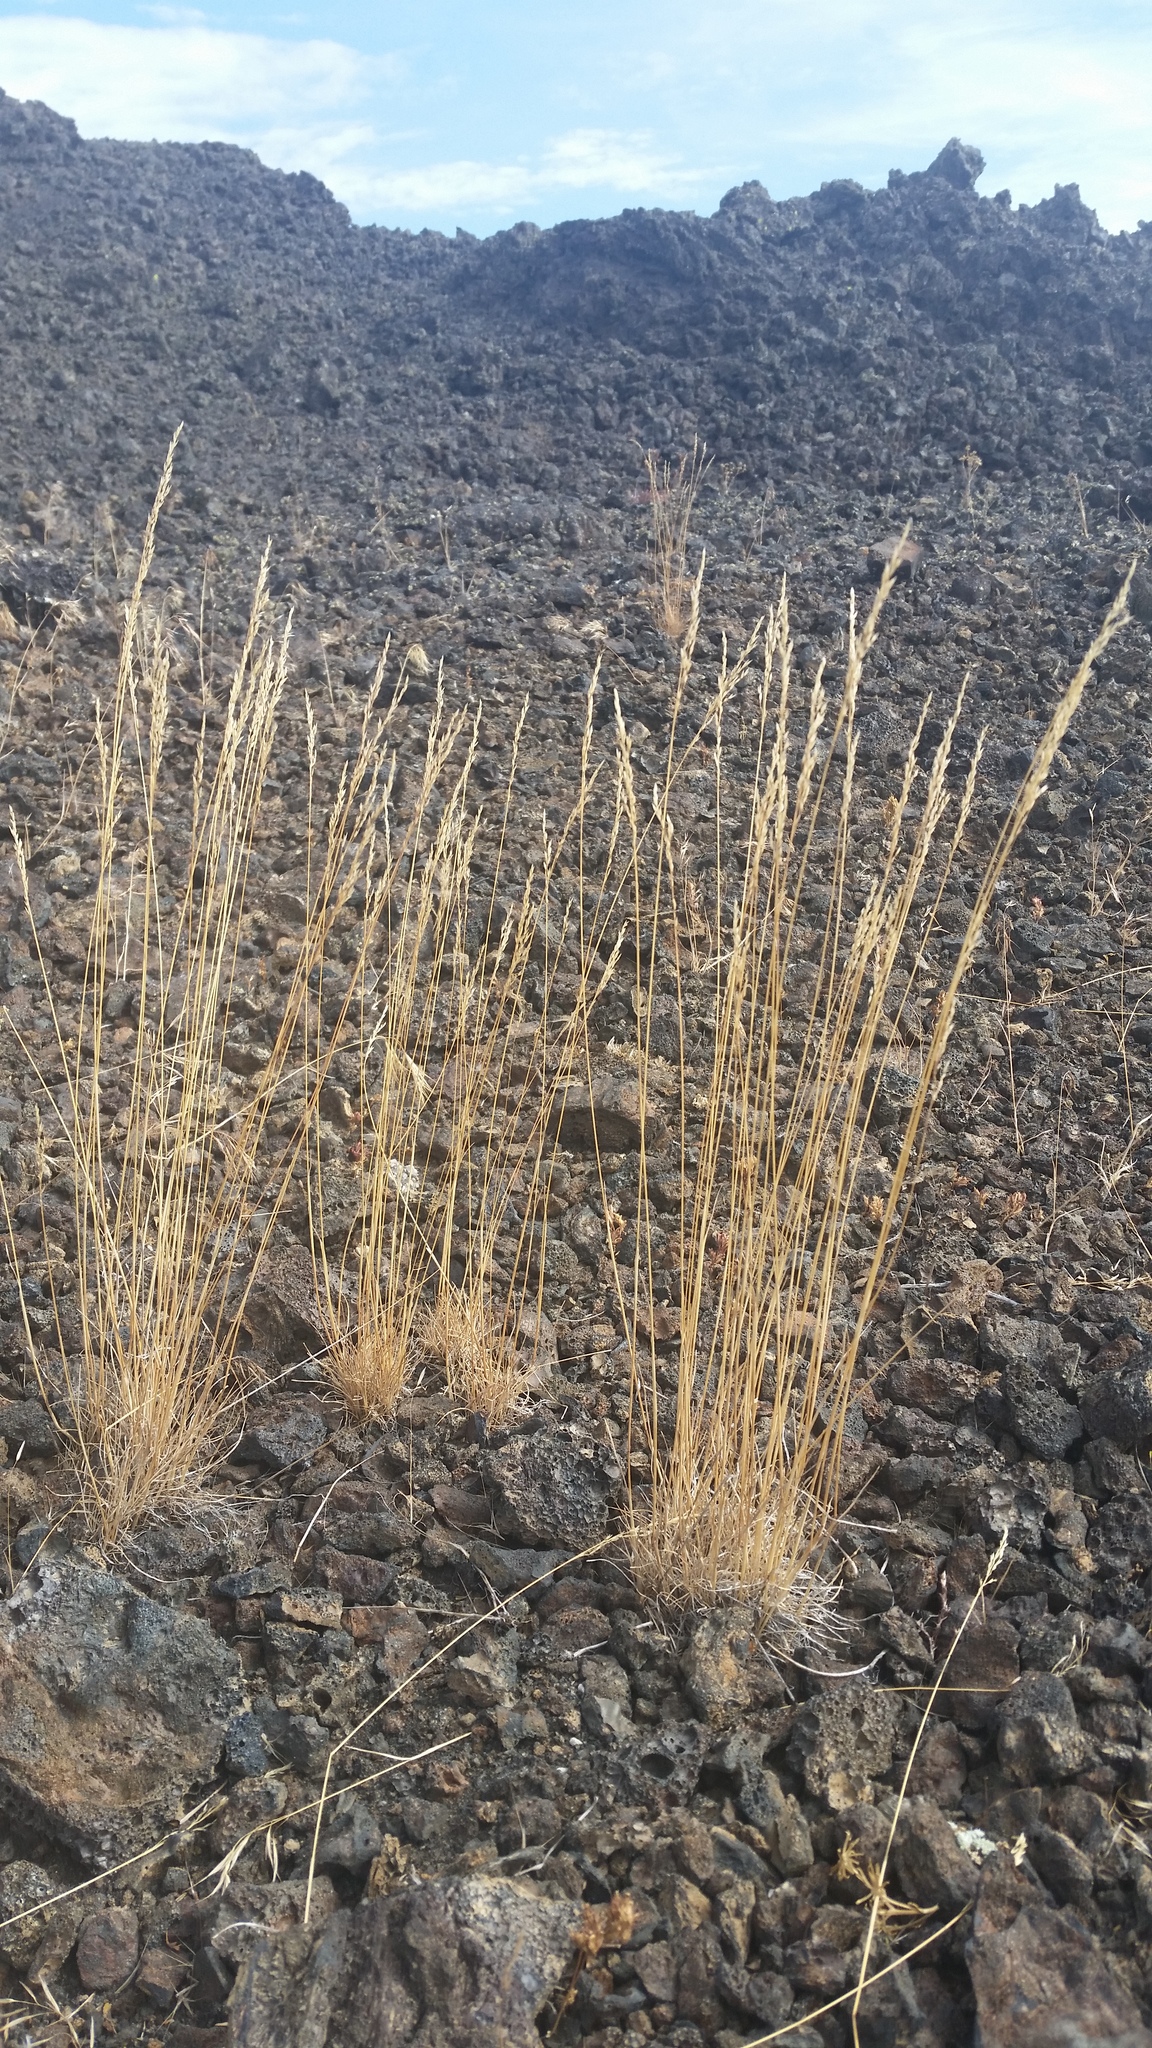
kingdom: Plantae
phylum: Tracheophyta
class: Liliopsida
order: Poales
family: Poaceae
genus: Poa
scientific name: Poa secunda
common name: Sandberg bluegrass
